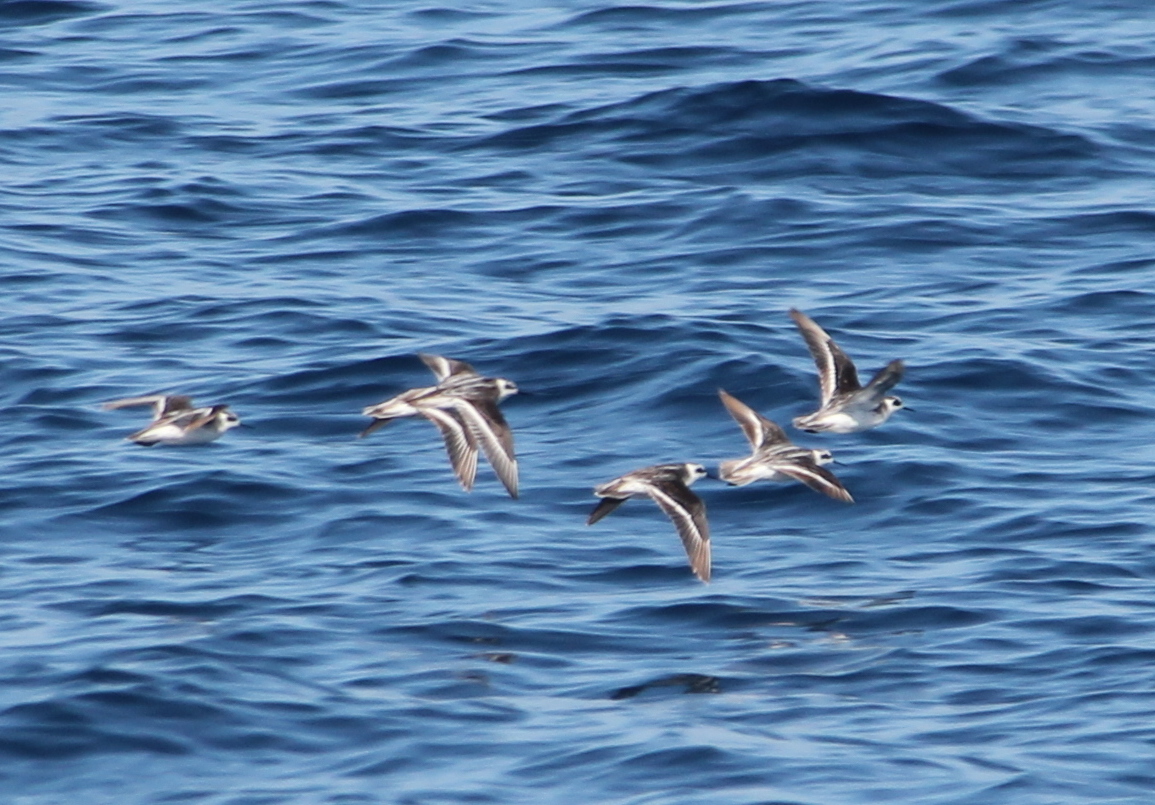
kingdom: Animalia
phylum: Chordata
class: Aves
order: Charadriiformes
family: Scolopacidae
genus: Phalaropus
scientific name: Phalaropus lobatus
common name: Red-necked phalarope
